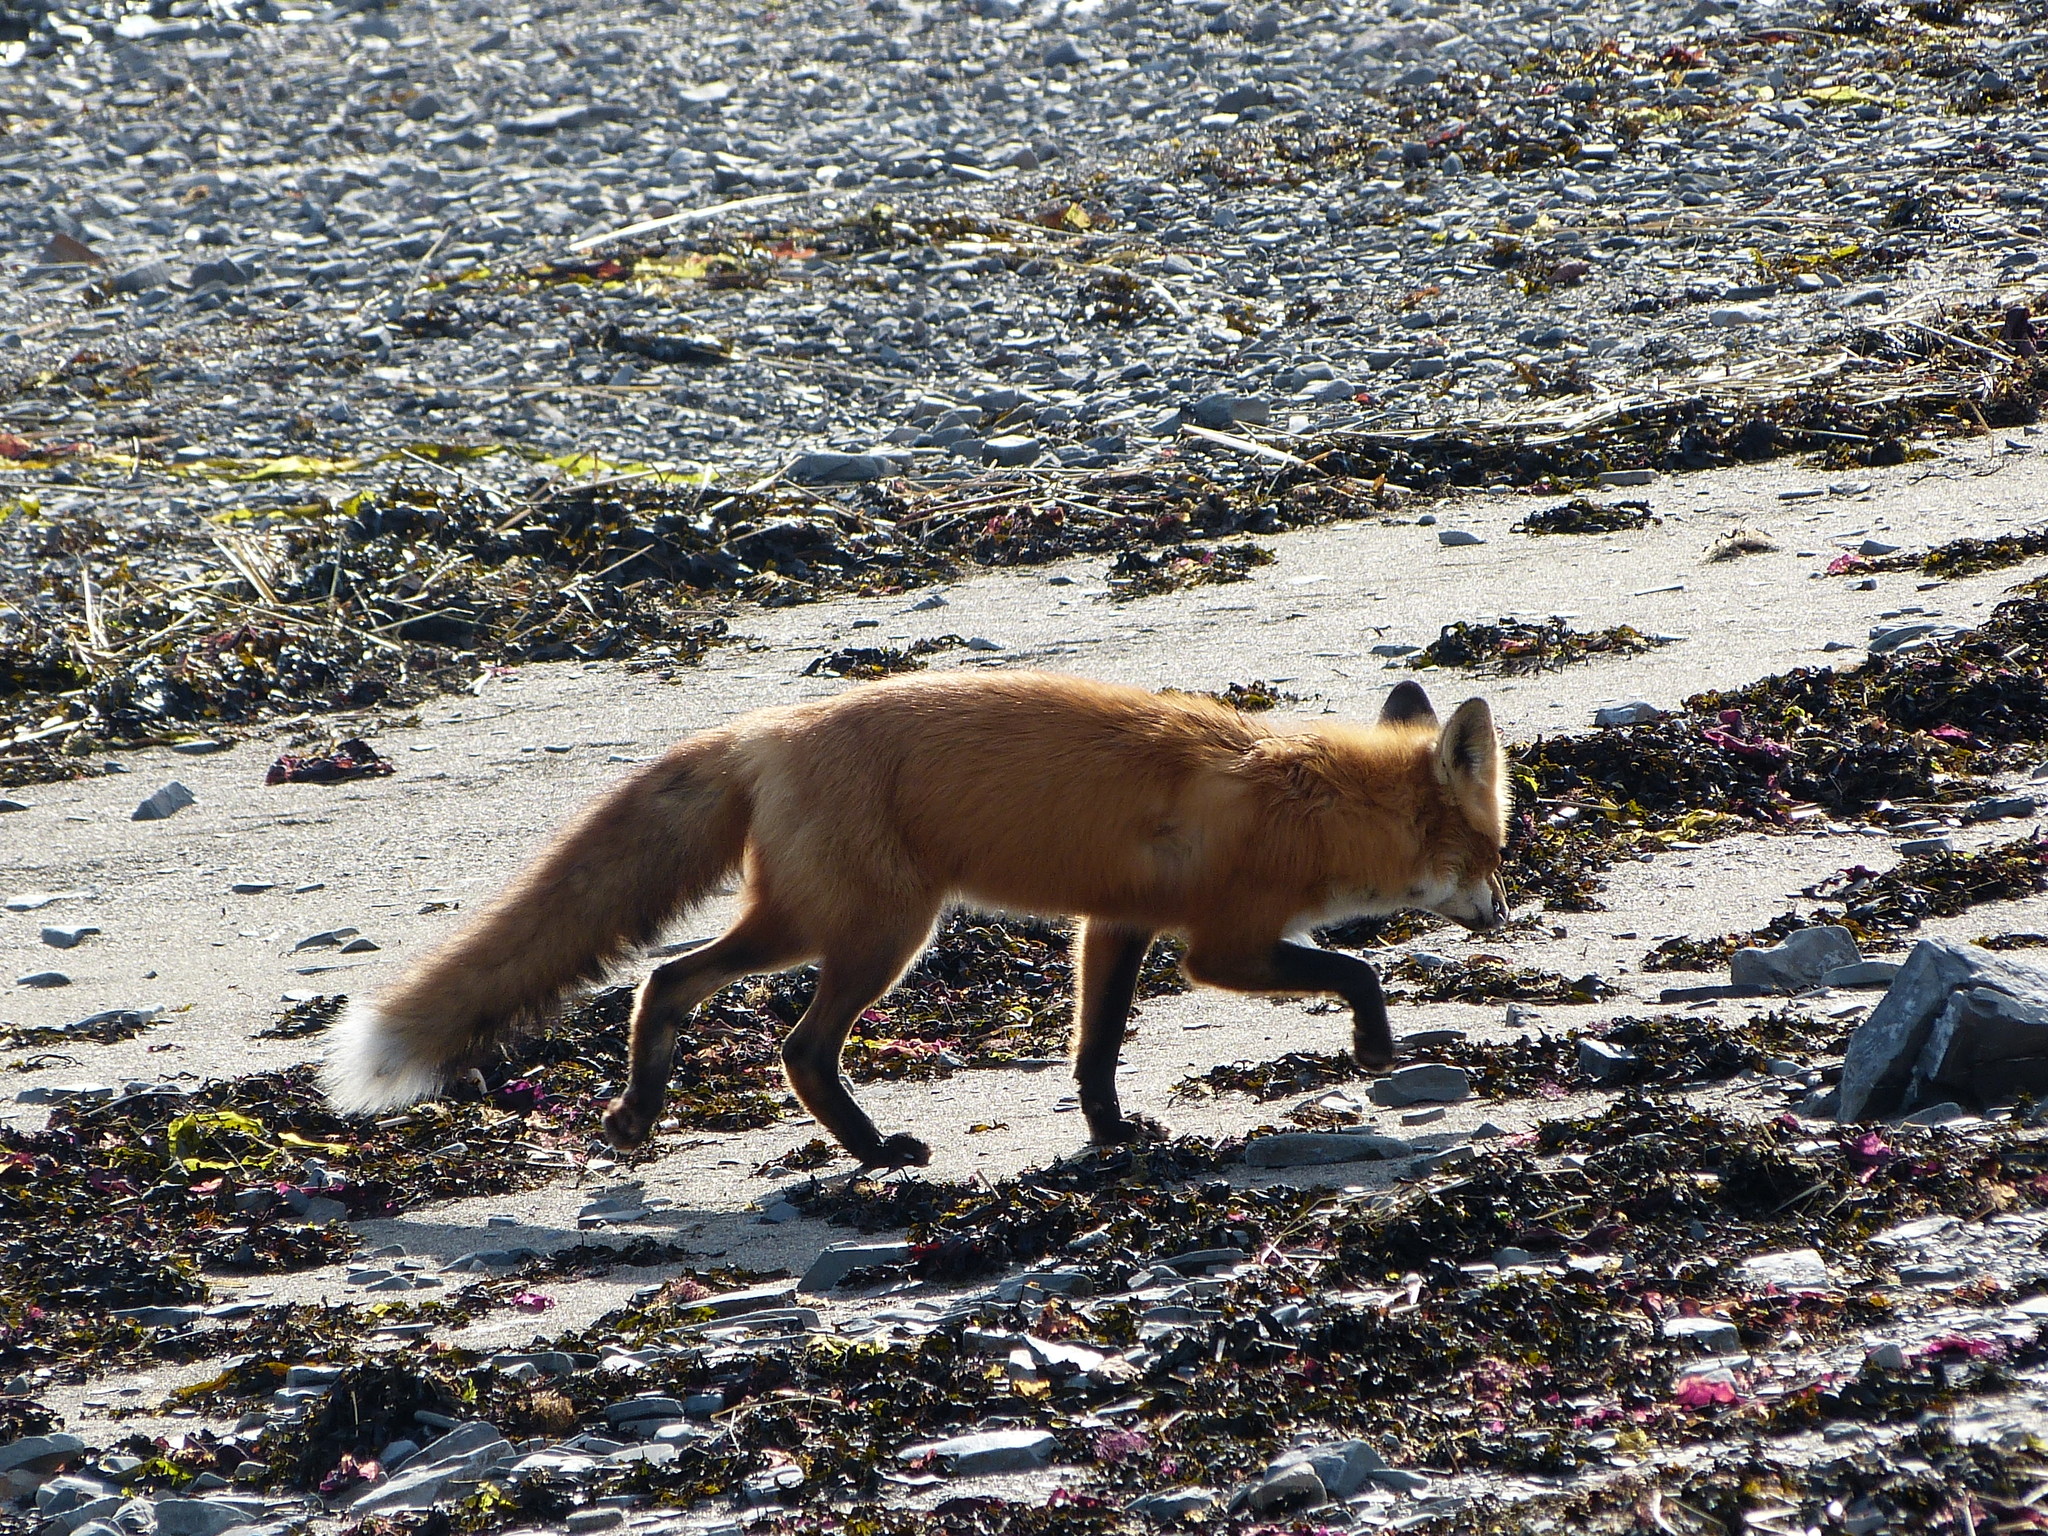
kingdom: Animalia
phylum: Chordata
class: Mammalia
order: Carnivora
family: Canidae
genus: Vulpes
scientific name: Vulpes vulpes
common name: Red fox
